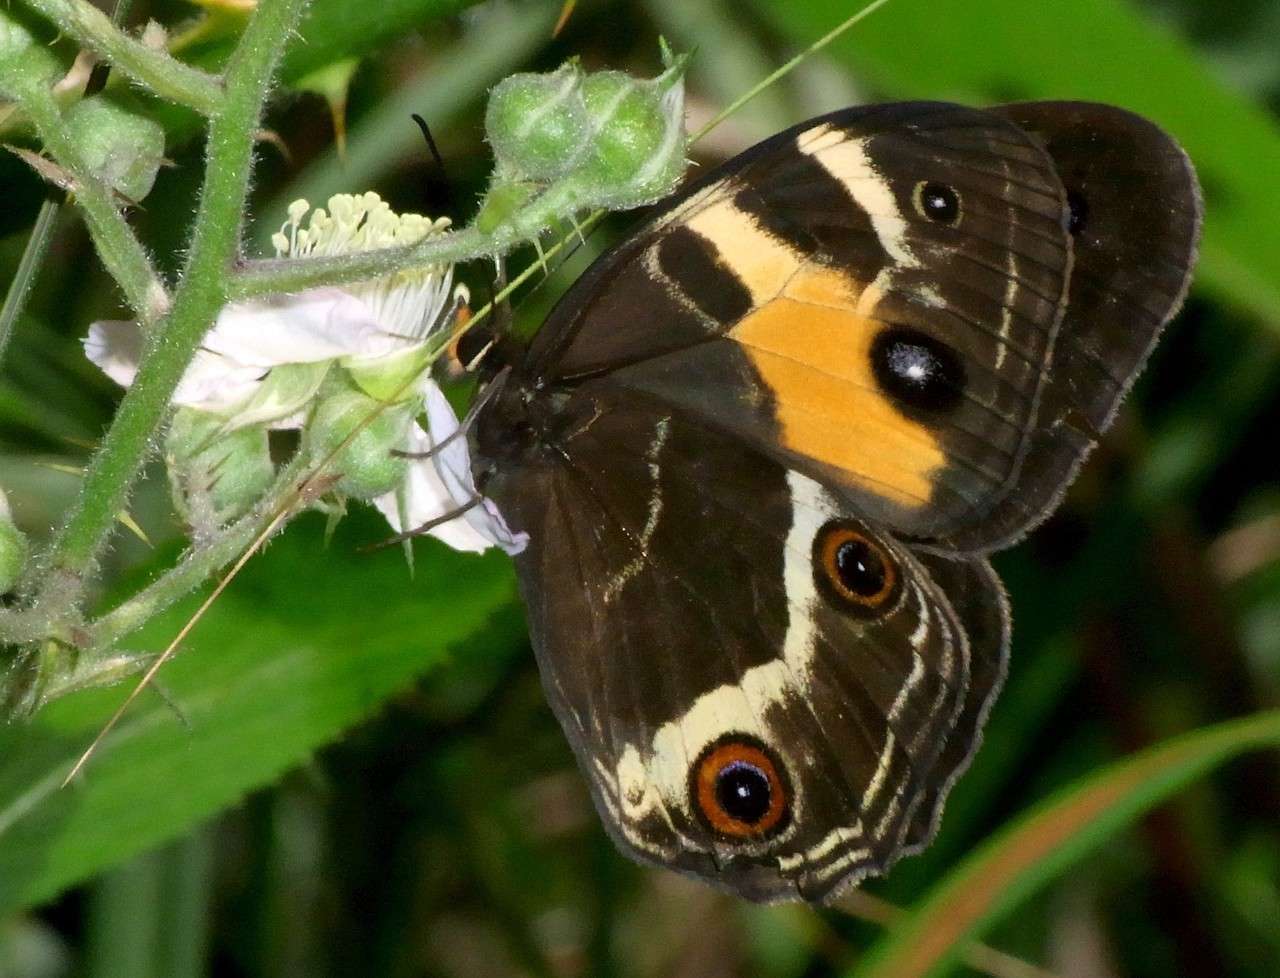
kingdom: Animalia
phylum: Arthropoda
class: Insecta
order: Lepidoptera
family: Nymphalidae
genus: Tisiphone
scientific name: Tisiphone abeona
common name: Swordgrass brown
